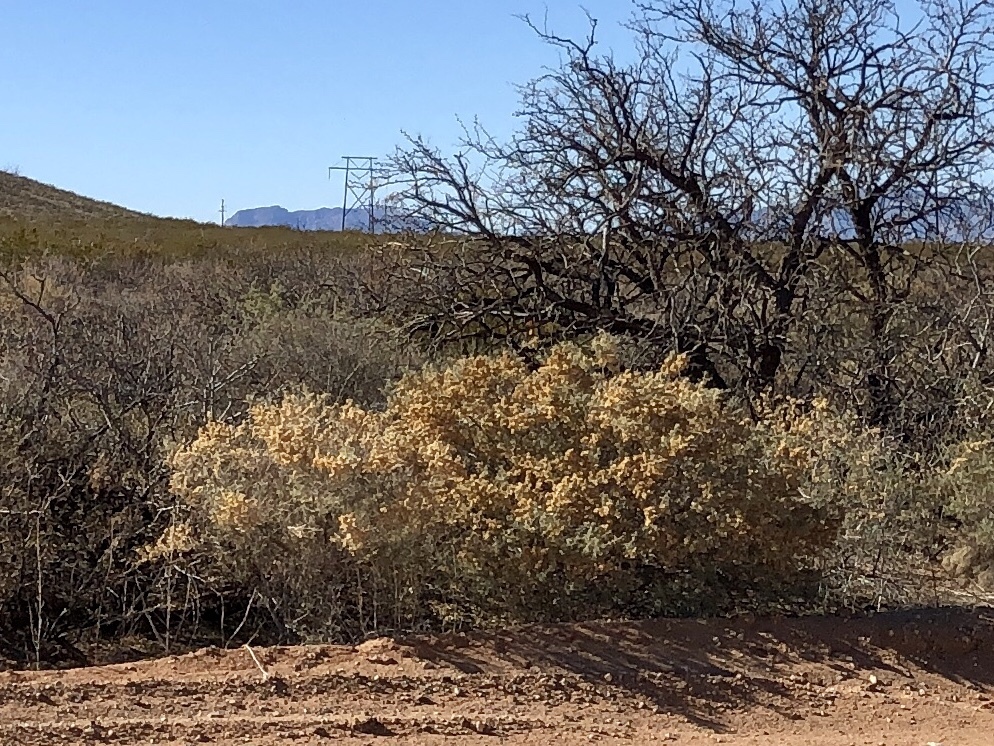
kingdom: Plantae
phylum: Tracheophyta
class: Magnoliopsida
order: Caryophyllales
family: Amaranthaceae
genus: Atriplex
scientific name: Atriplex canescens
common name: Four-wing saltbush
